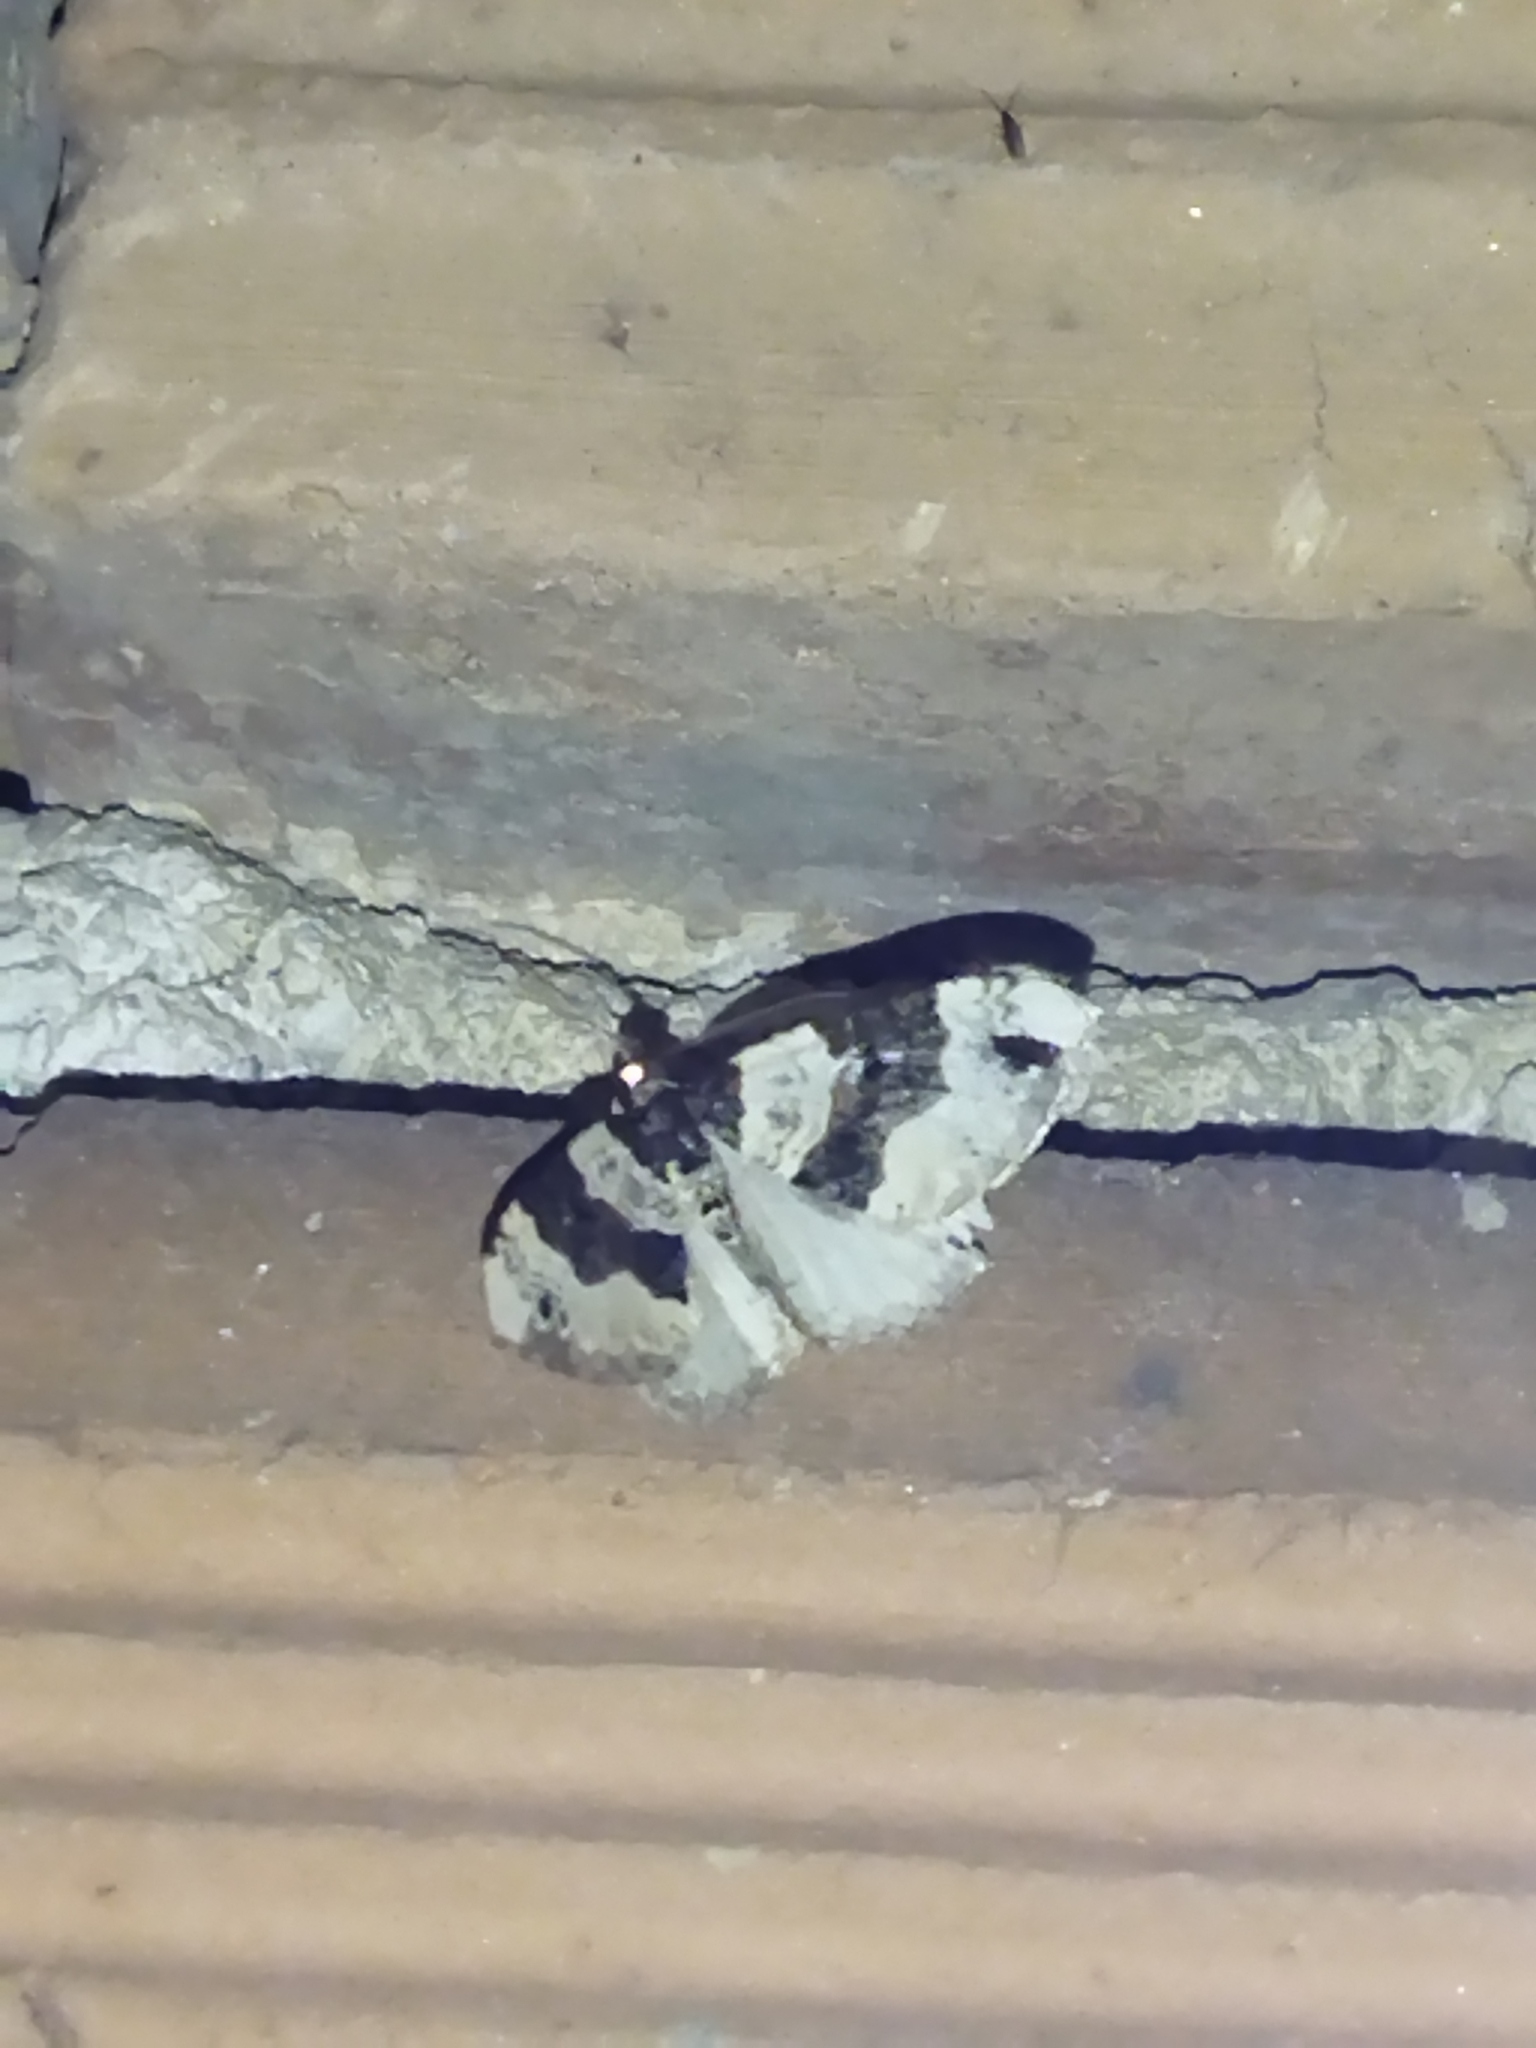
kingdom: Animalia
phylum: Arthropoda
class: Insecta
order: Lepidoptera
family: Geometridae
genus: Cosmorhoe
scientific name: Cosmorhoe ocellata
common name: Purple bar
